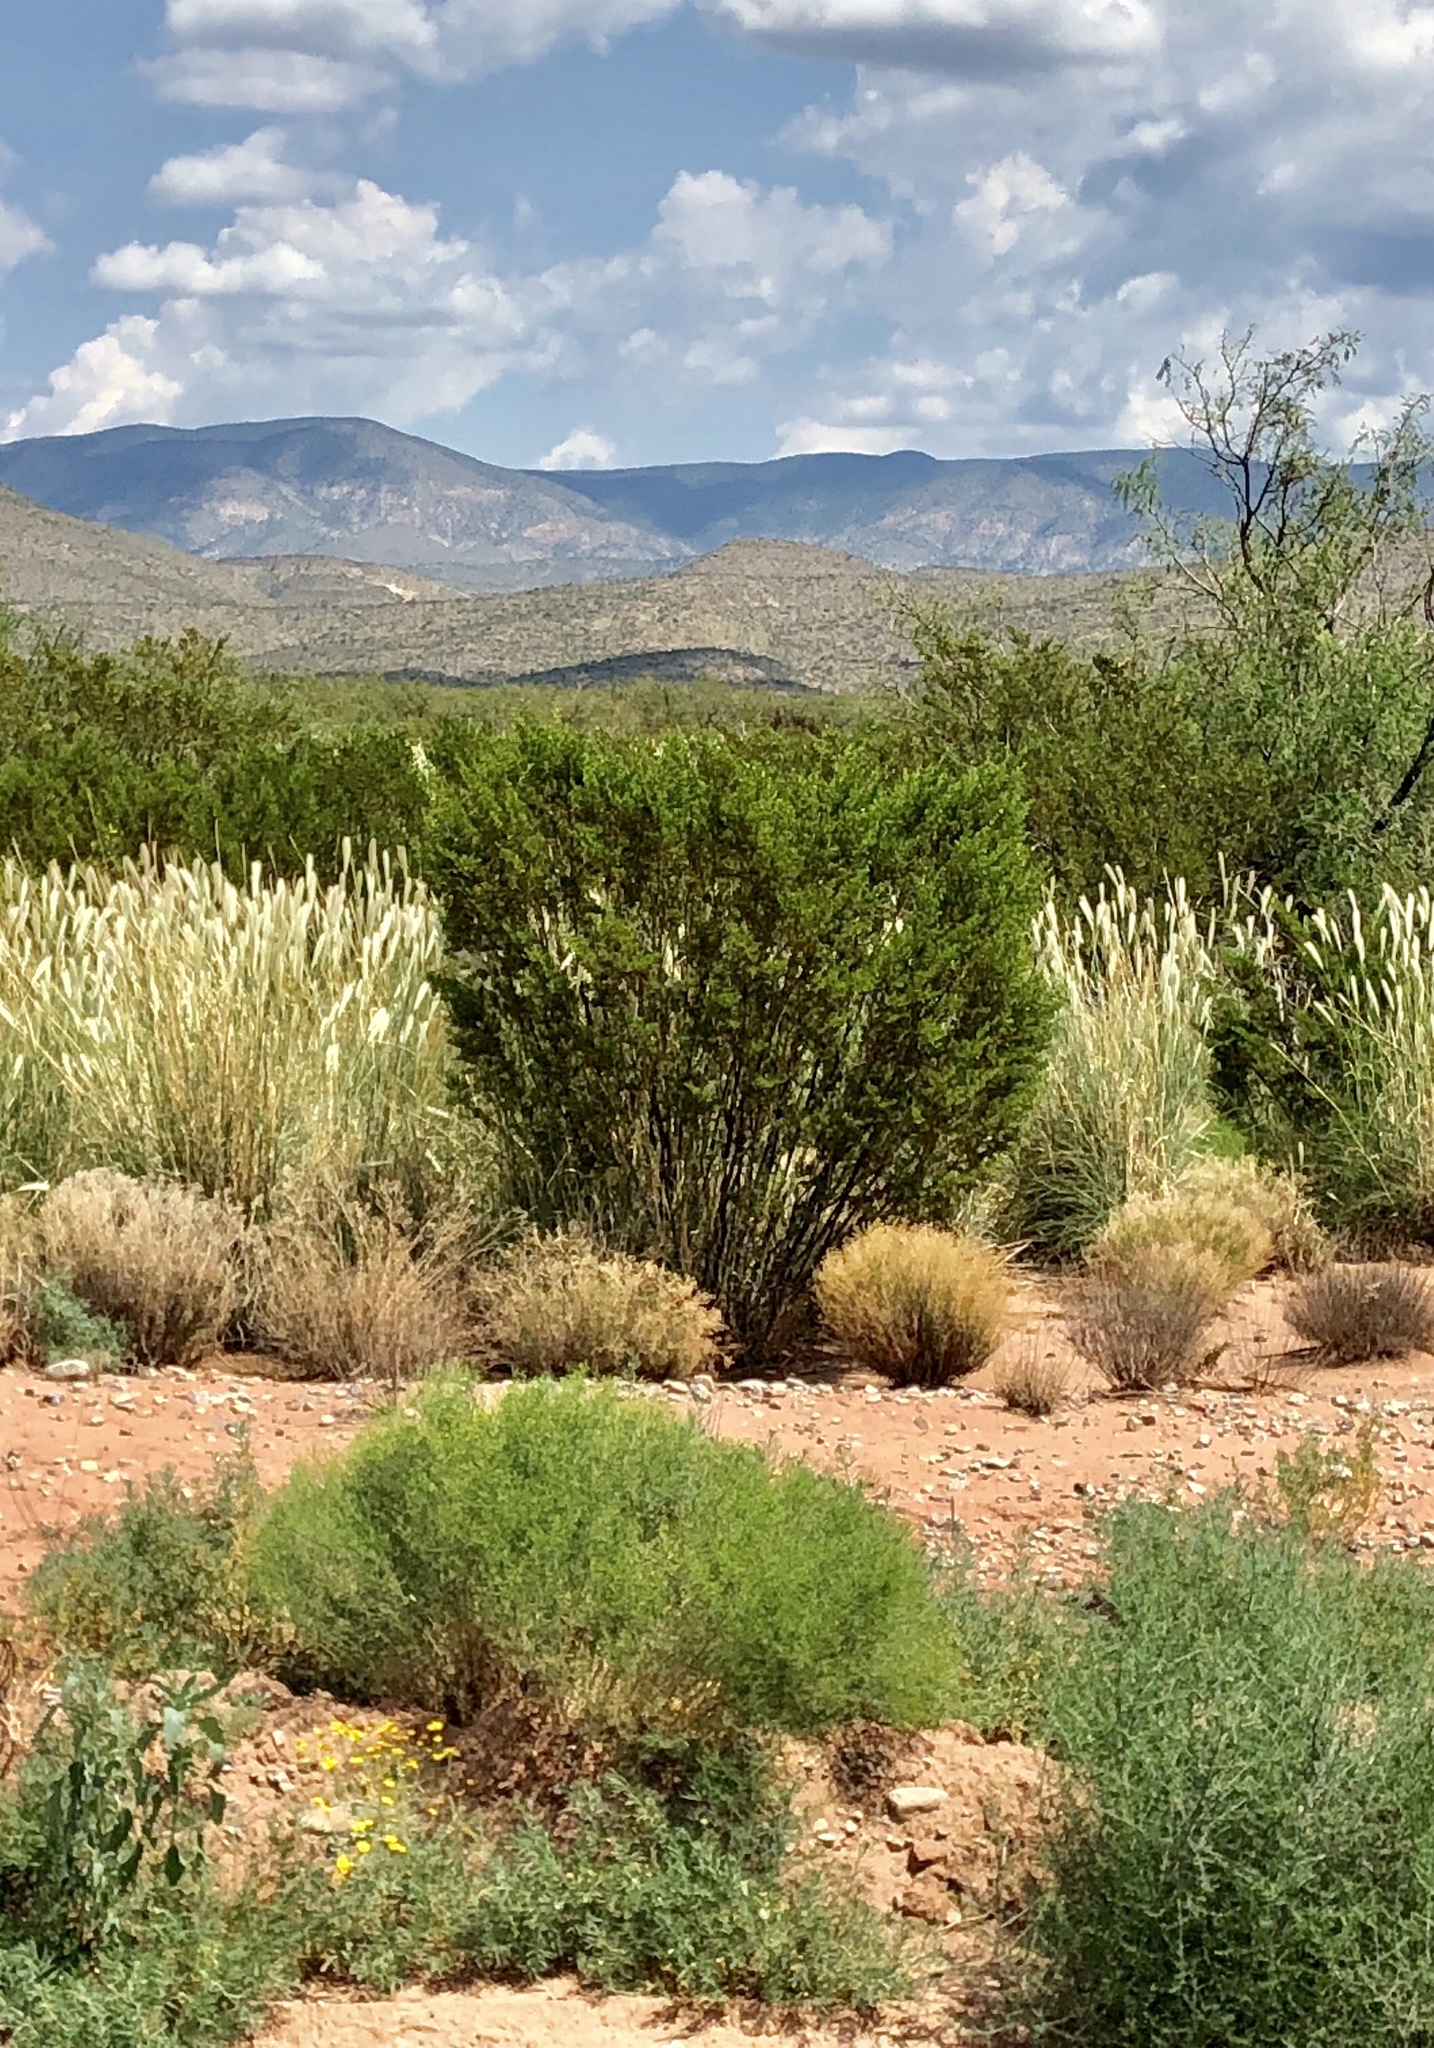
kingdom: Plantae
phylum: Tracheophyta
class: Magnoliopsida
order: Zygophyllales
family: Zygophyllaceae
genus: Larrea
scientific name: Larrea tridentata
